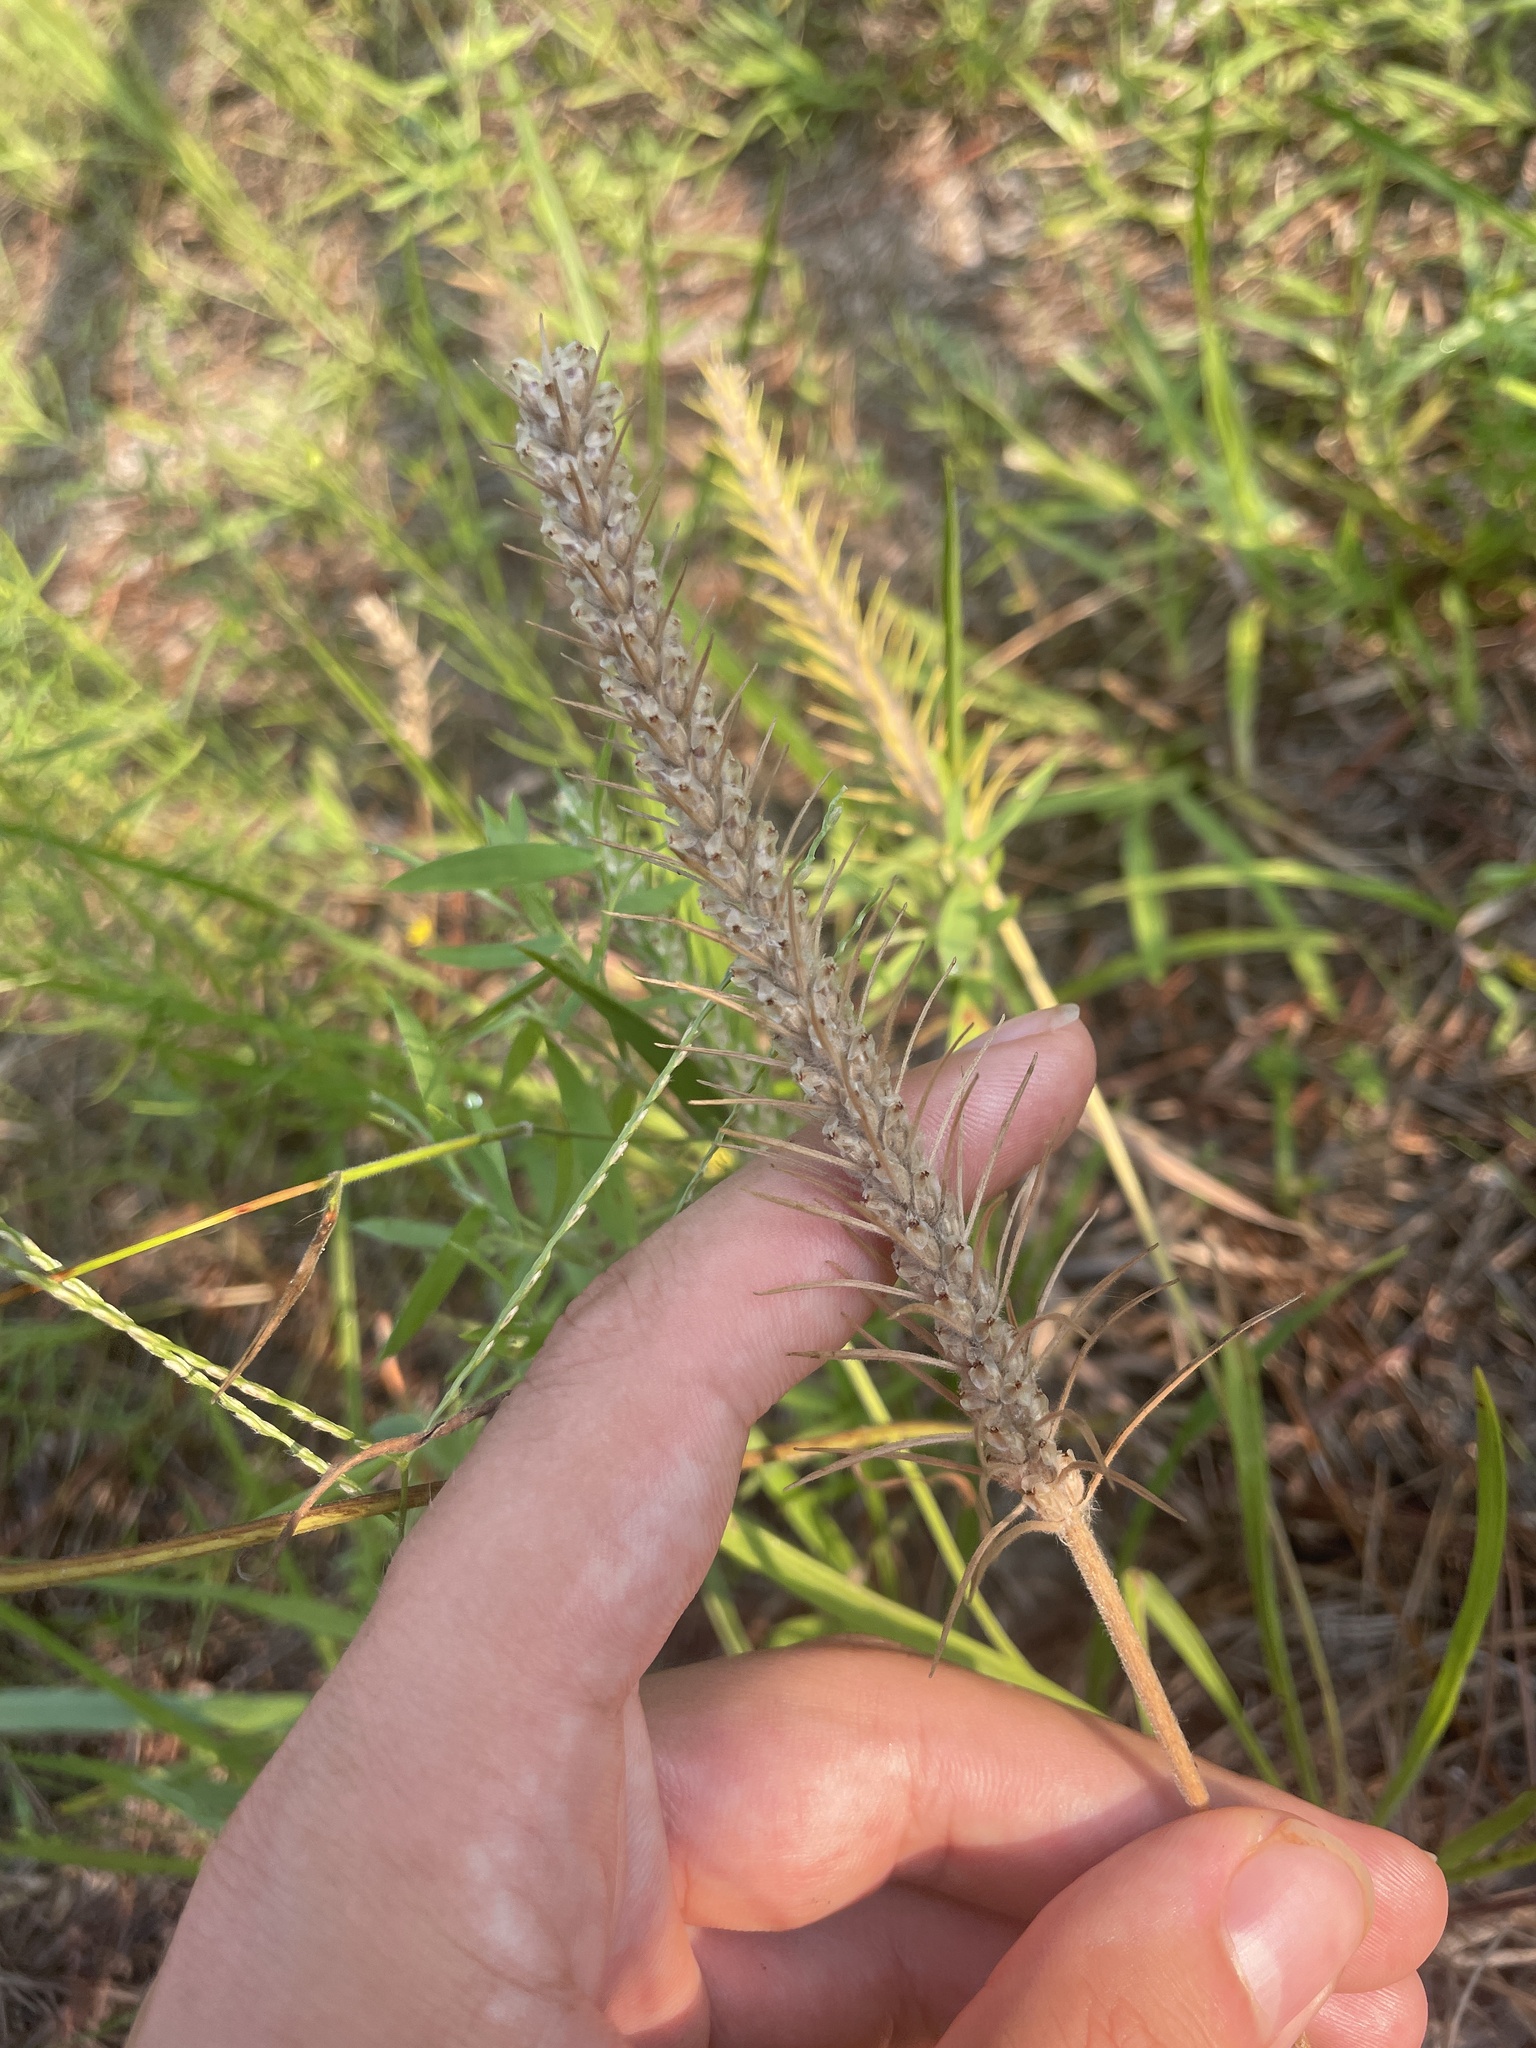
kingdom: Plantae
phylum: Tracheophyta
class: Magnoliopsida
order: Lamiales
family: Plantaginaceae
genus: Plantago
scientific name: Plantago aristata
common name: Bracted plantain
